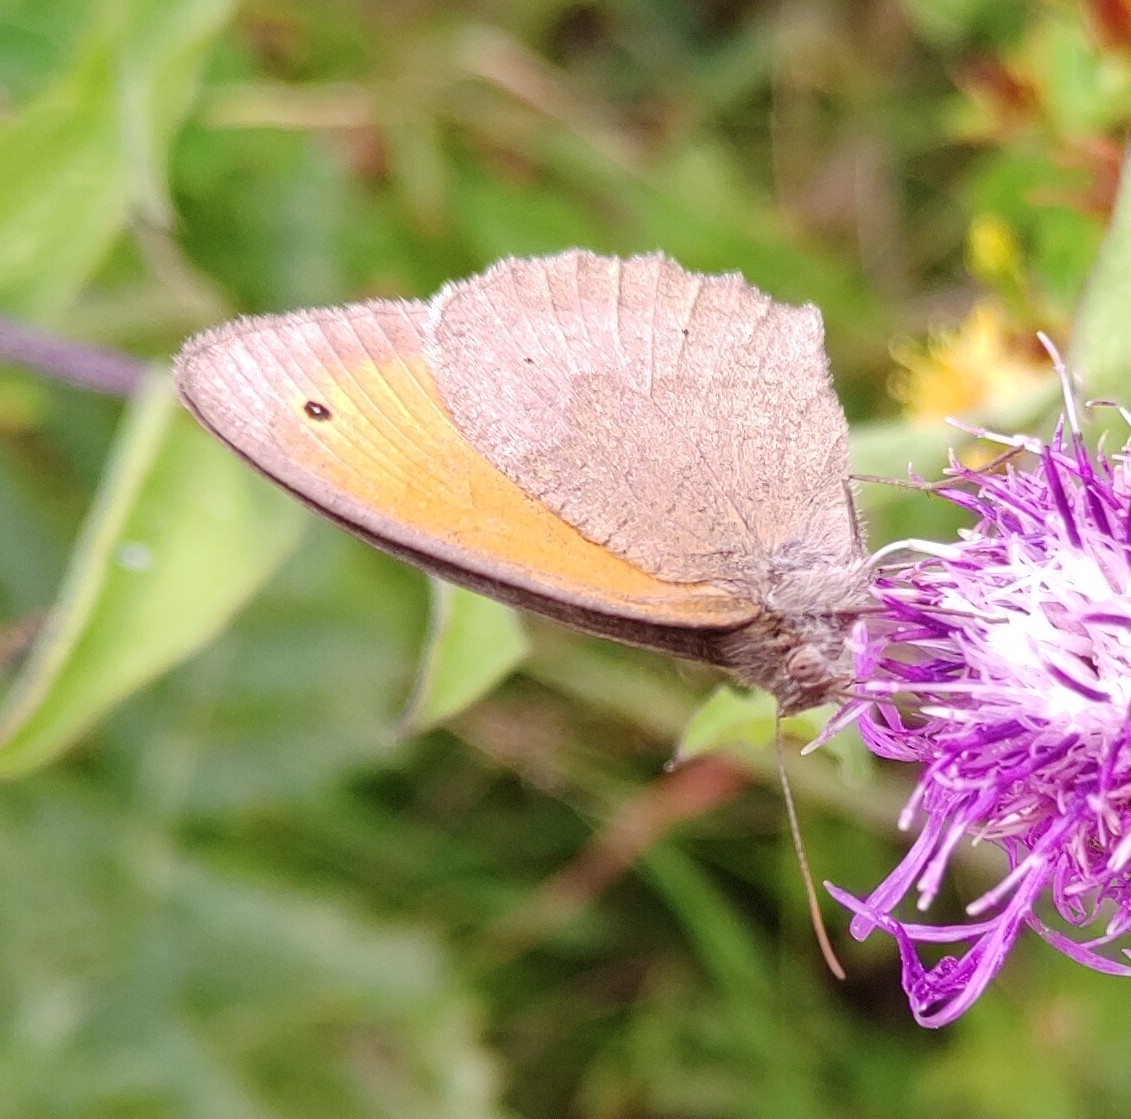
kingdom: Animalia
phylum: Arthropoda
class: Insecta
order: Lepidoptera
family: Nymphalidae
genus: Maniola
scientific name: Maniola jurtina
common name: Meadow brown
